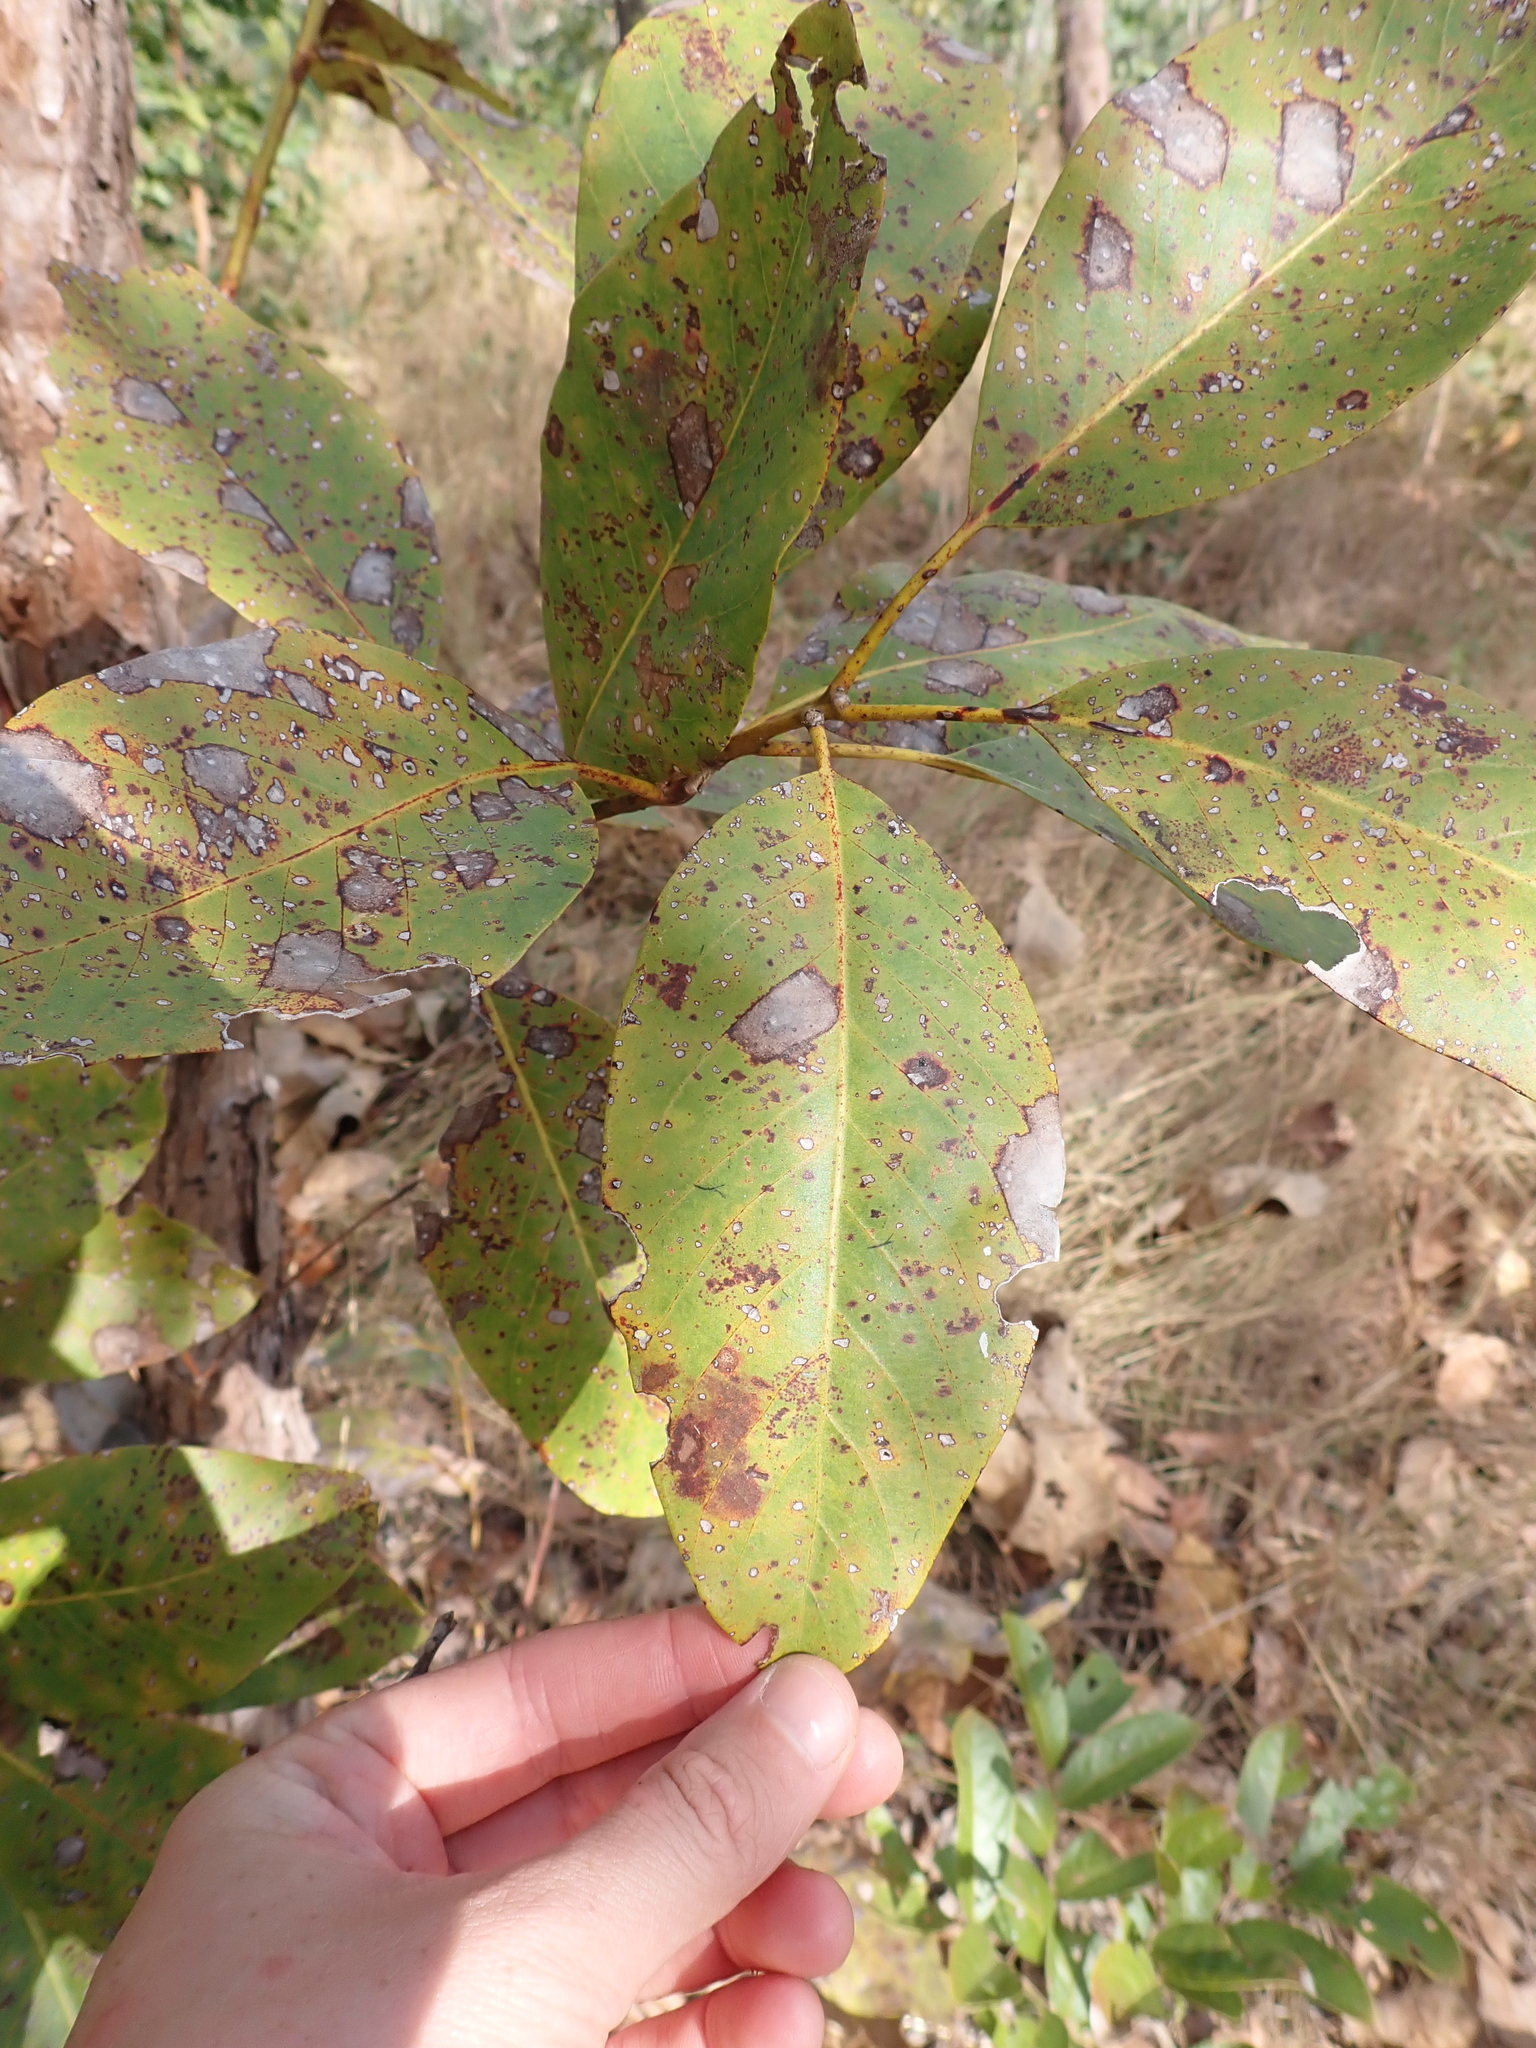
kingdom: Plantae
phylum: Tracheophyta
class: Magnoliopsida
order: Myrtales
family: Myrtaceae
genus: Lophostemon
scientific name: Lophostemon lactifluus
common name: Milky box
